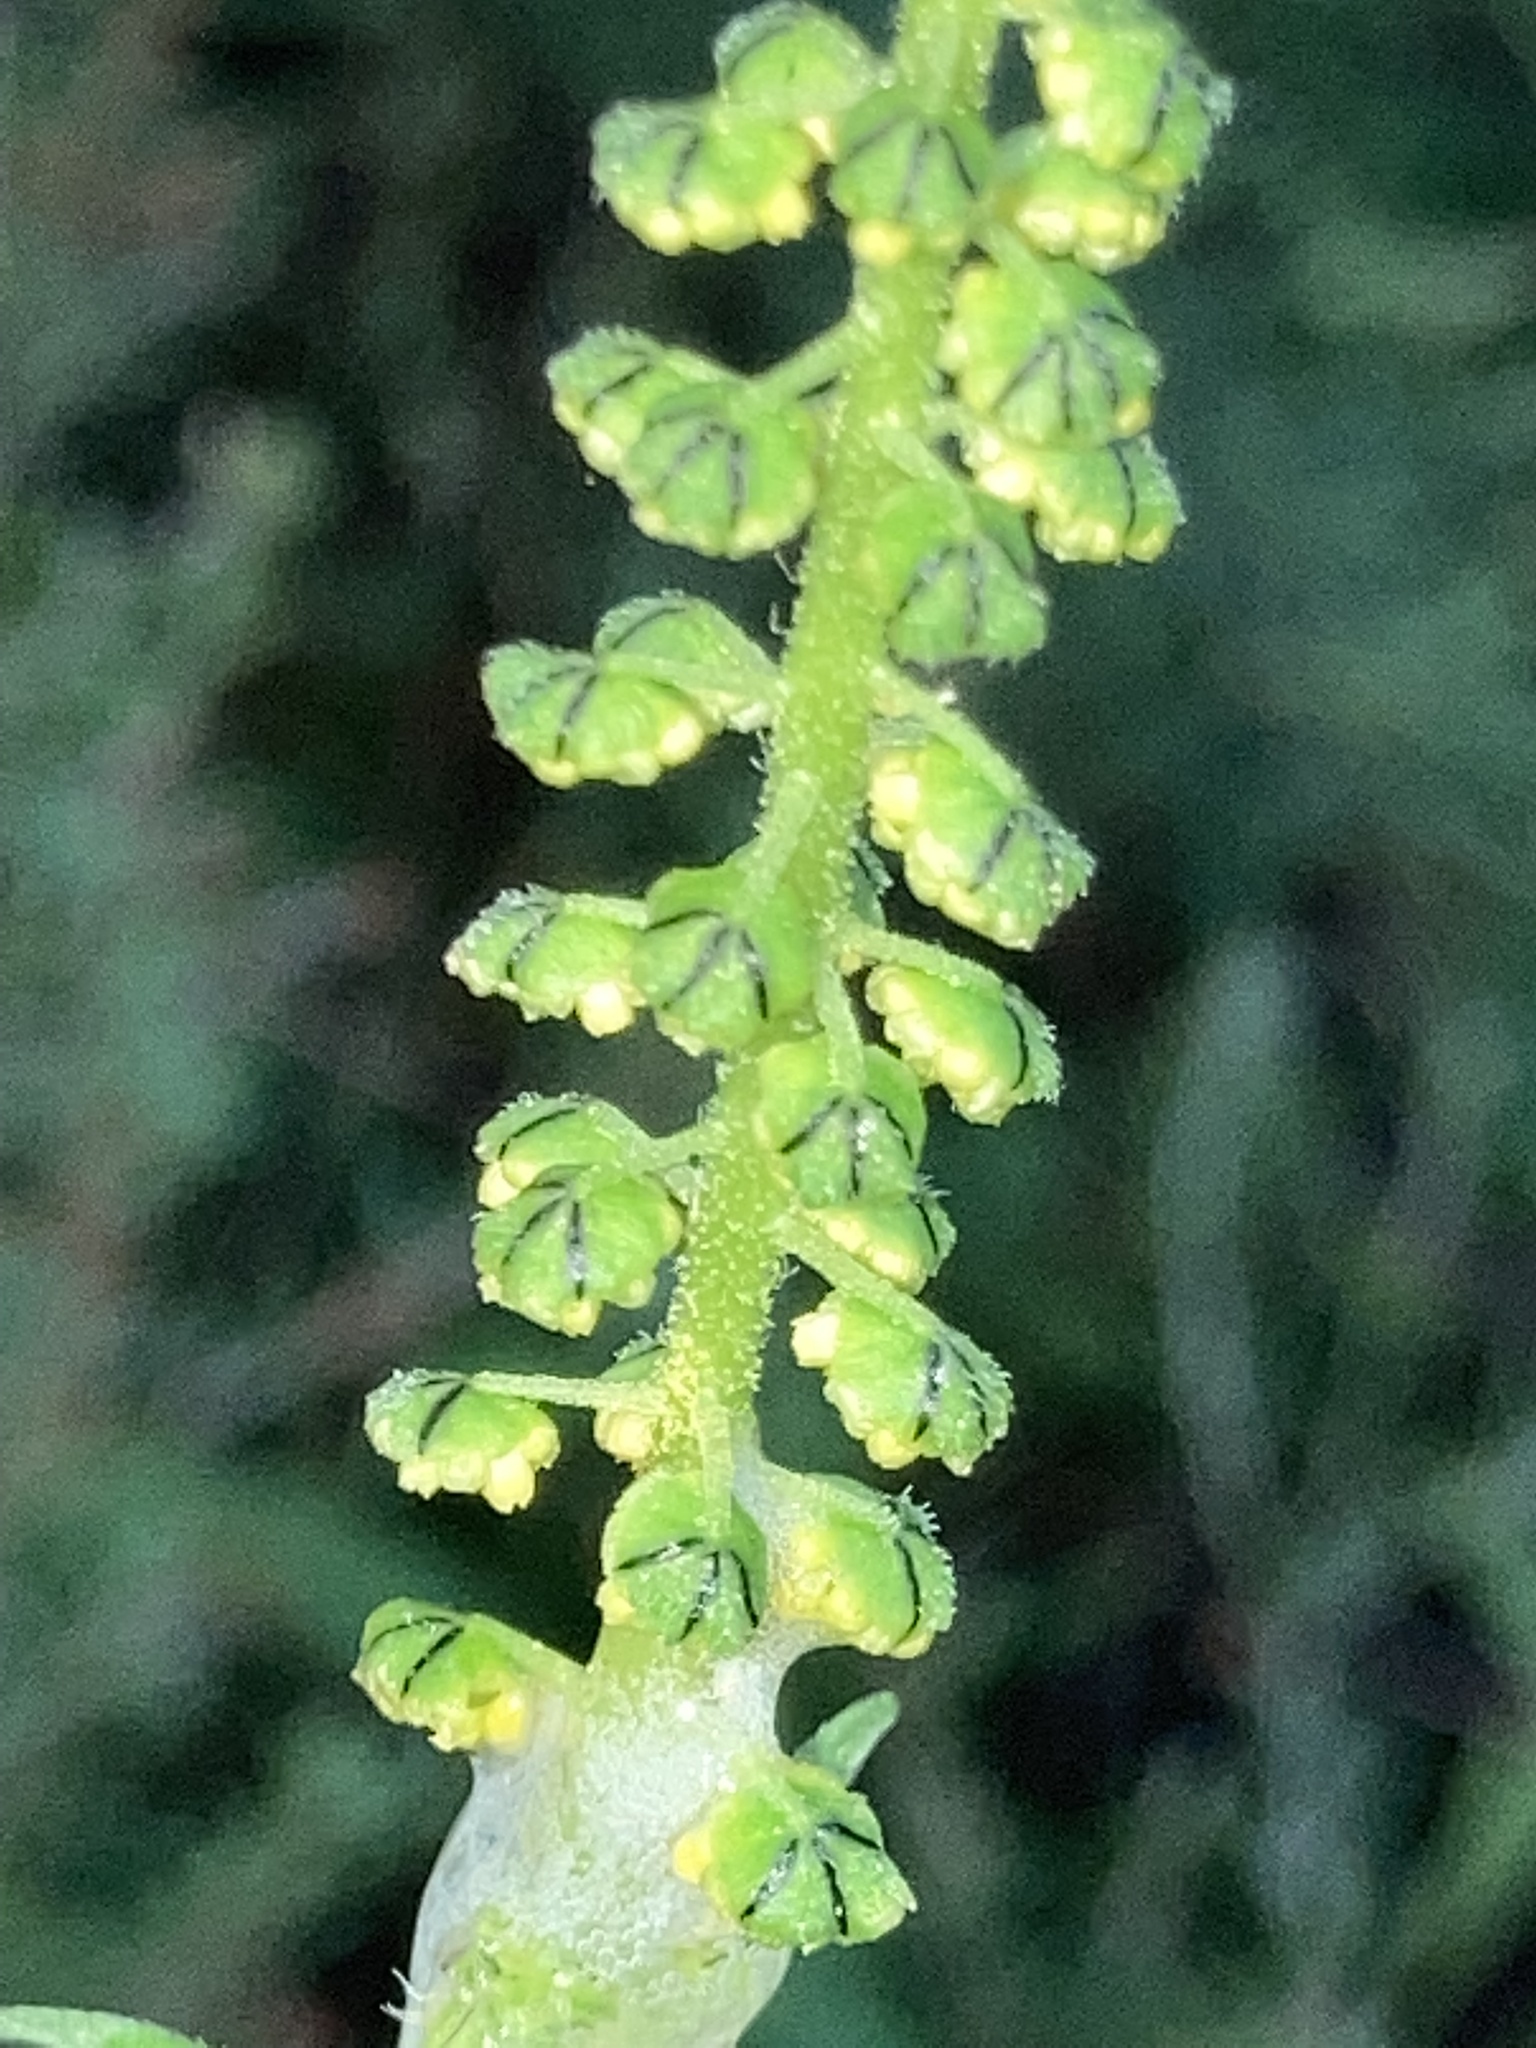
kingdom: Plantae
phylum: Tracheophyta
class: Magnoliopsida
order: Asterales
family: Asteraceae
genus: Ambrosia
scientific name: Ambrosia trifida
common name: Giant ragweed
